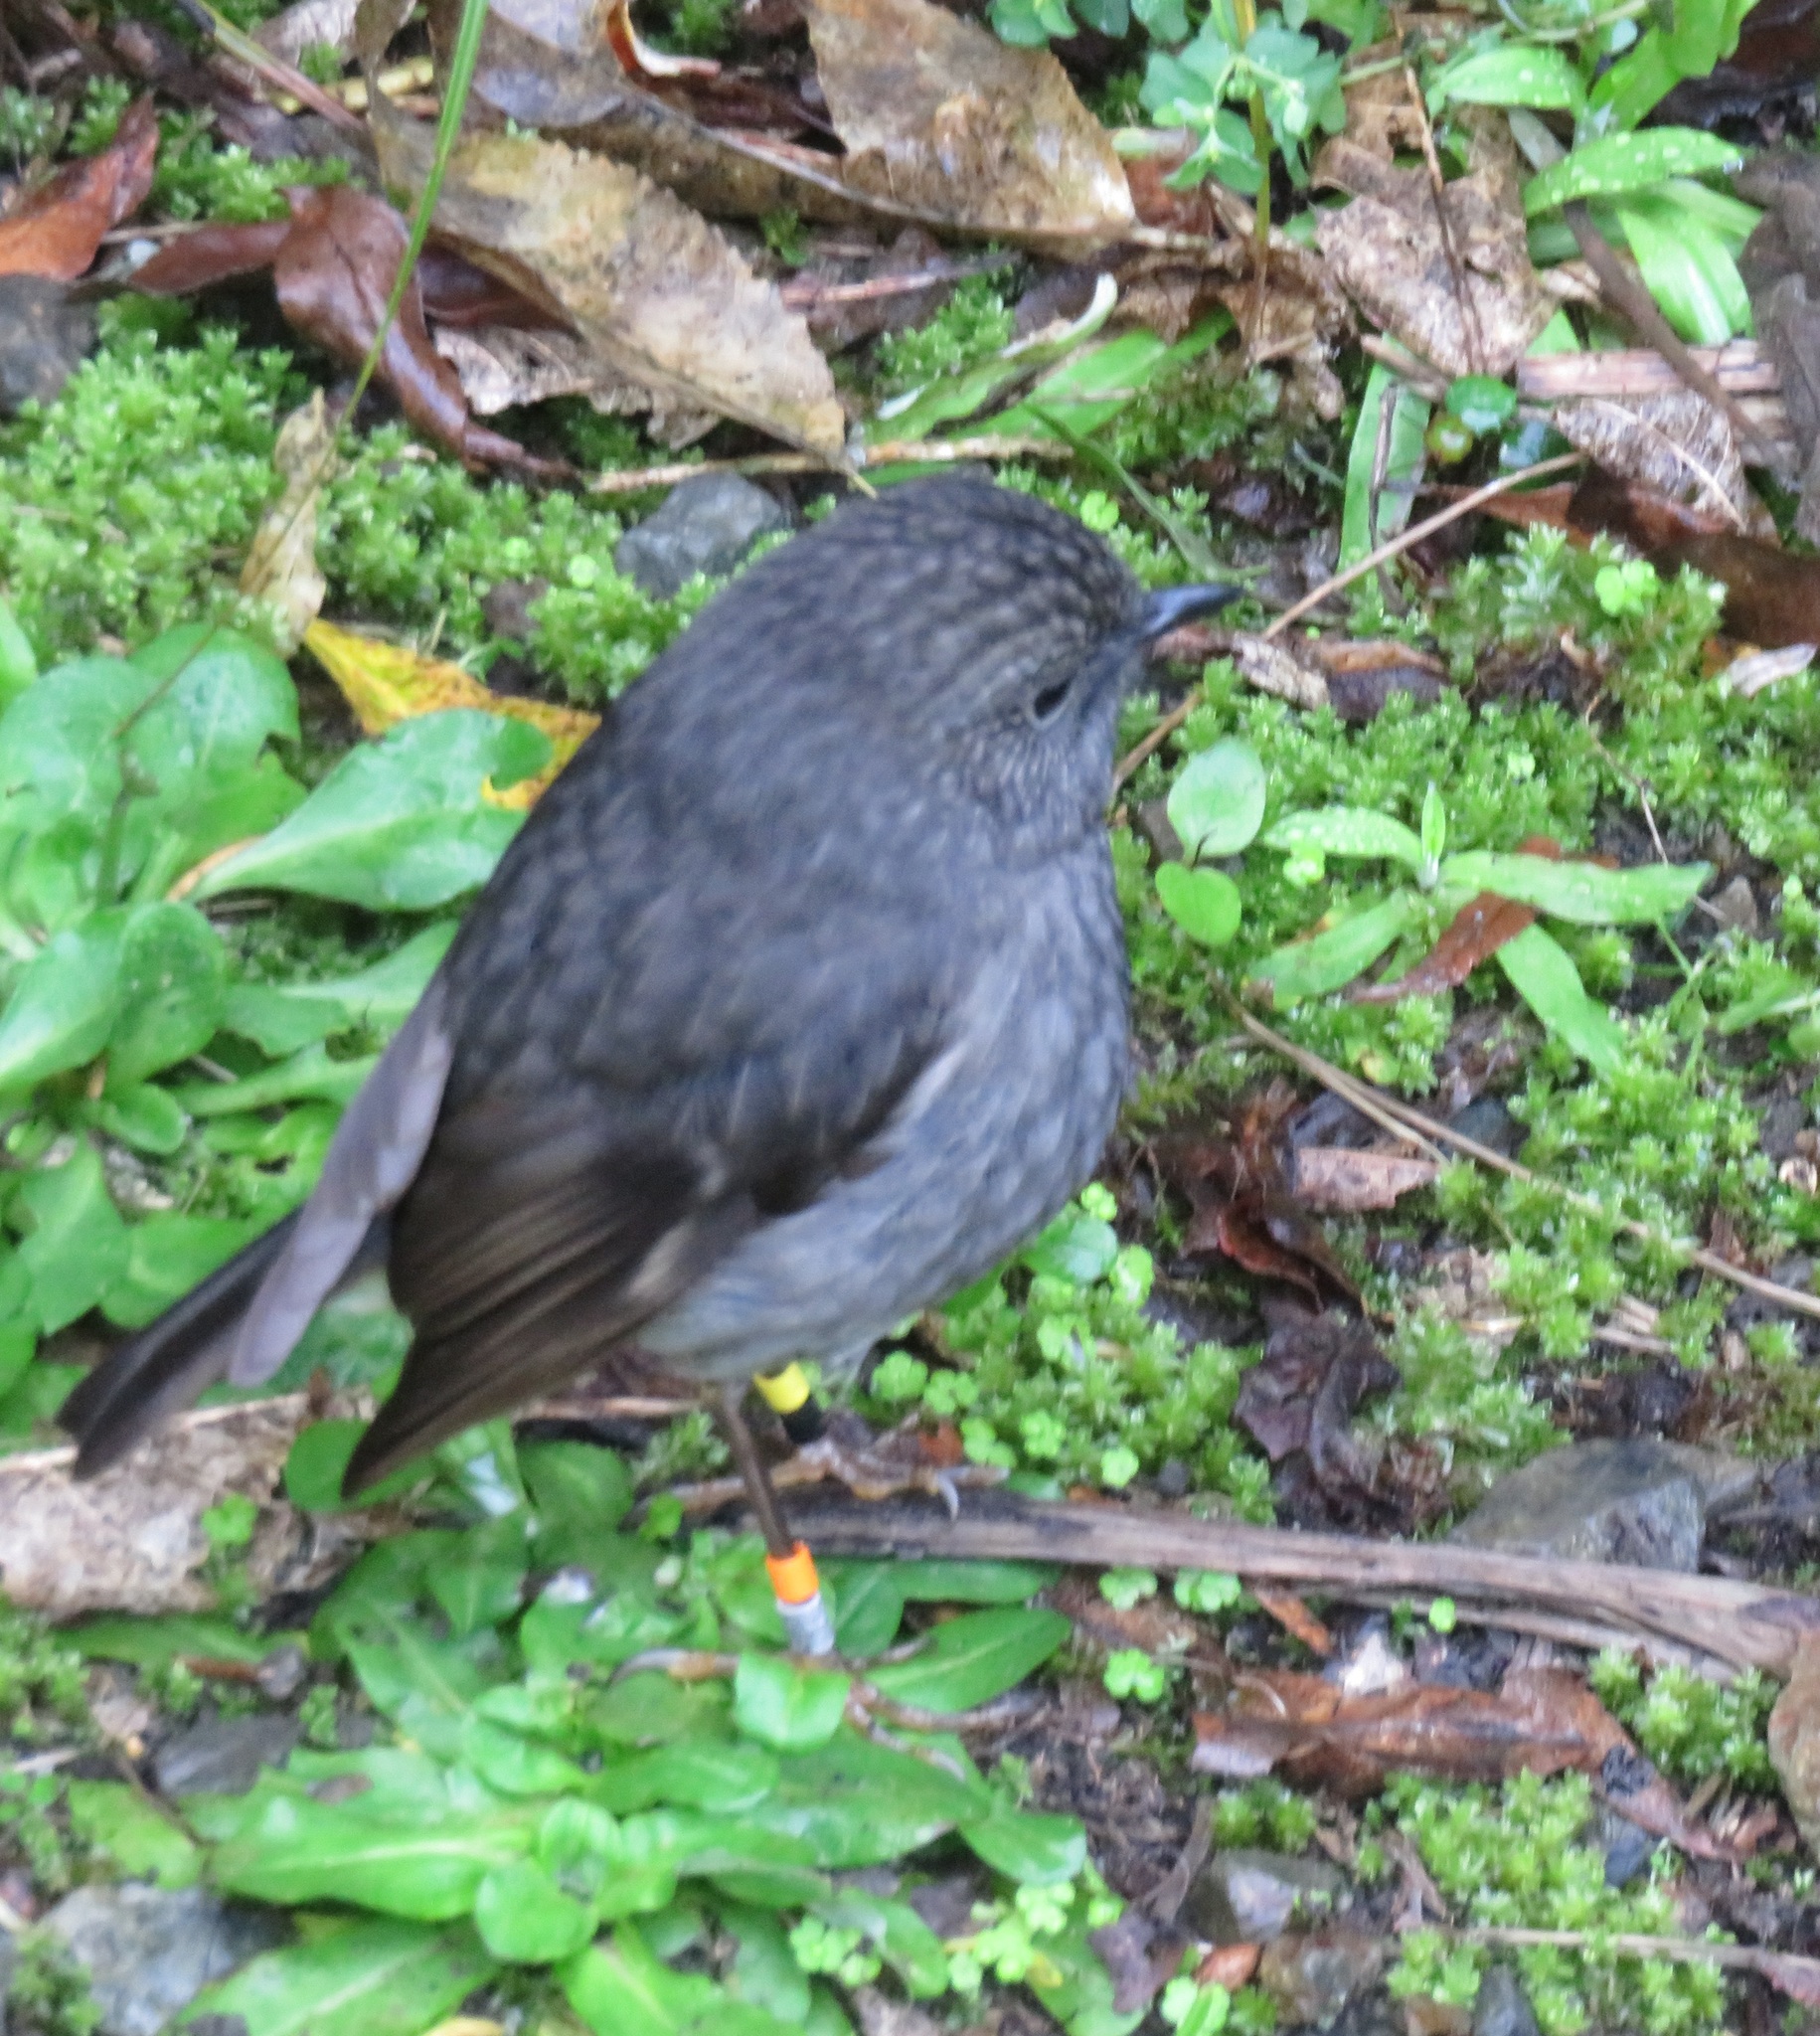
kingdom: Animalia
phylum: Chordata
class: Aves
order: Passeriformes
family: Petroicidae
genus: Petroica
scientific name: Petroica australis
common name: New zealand robin
